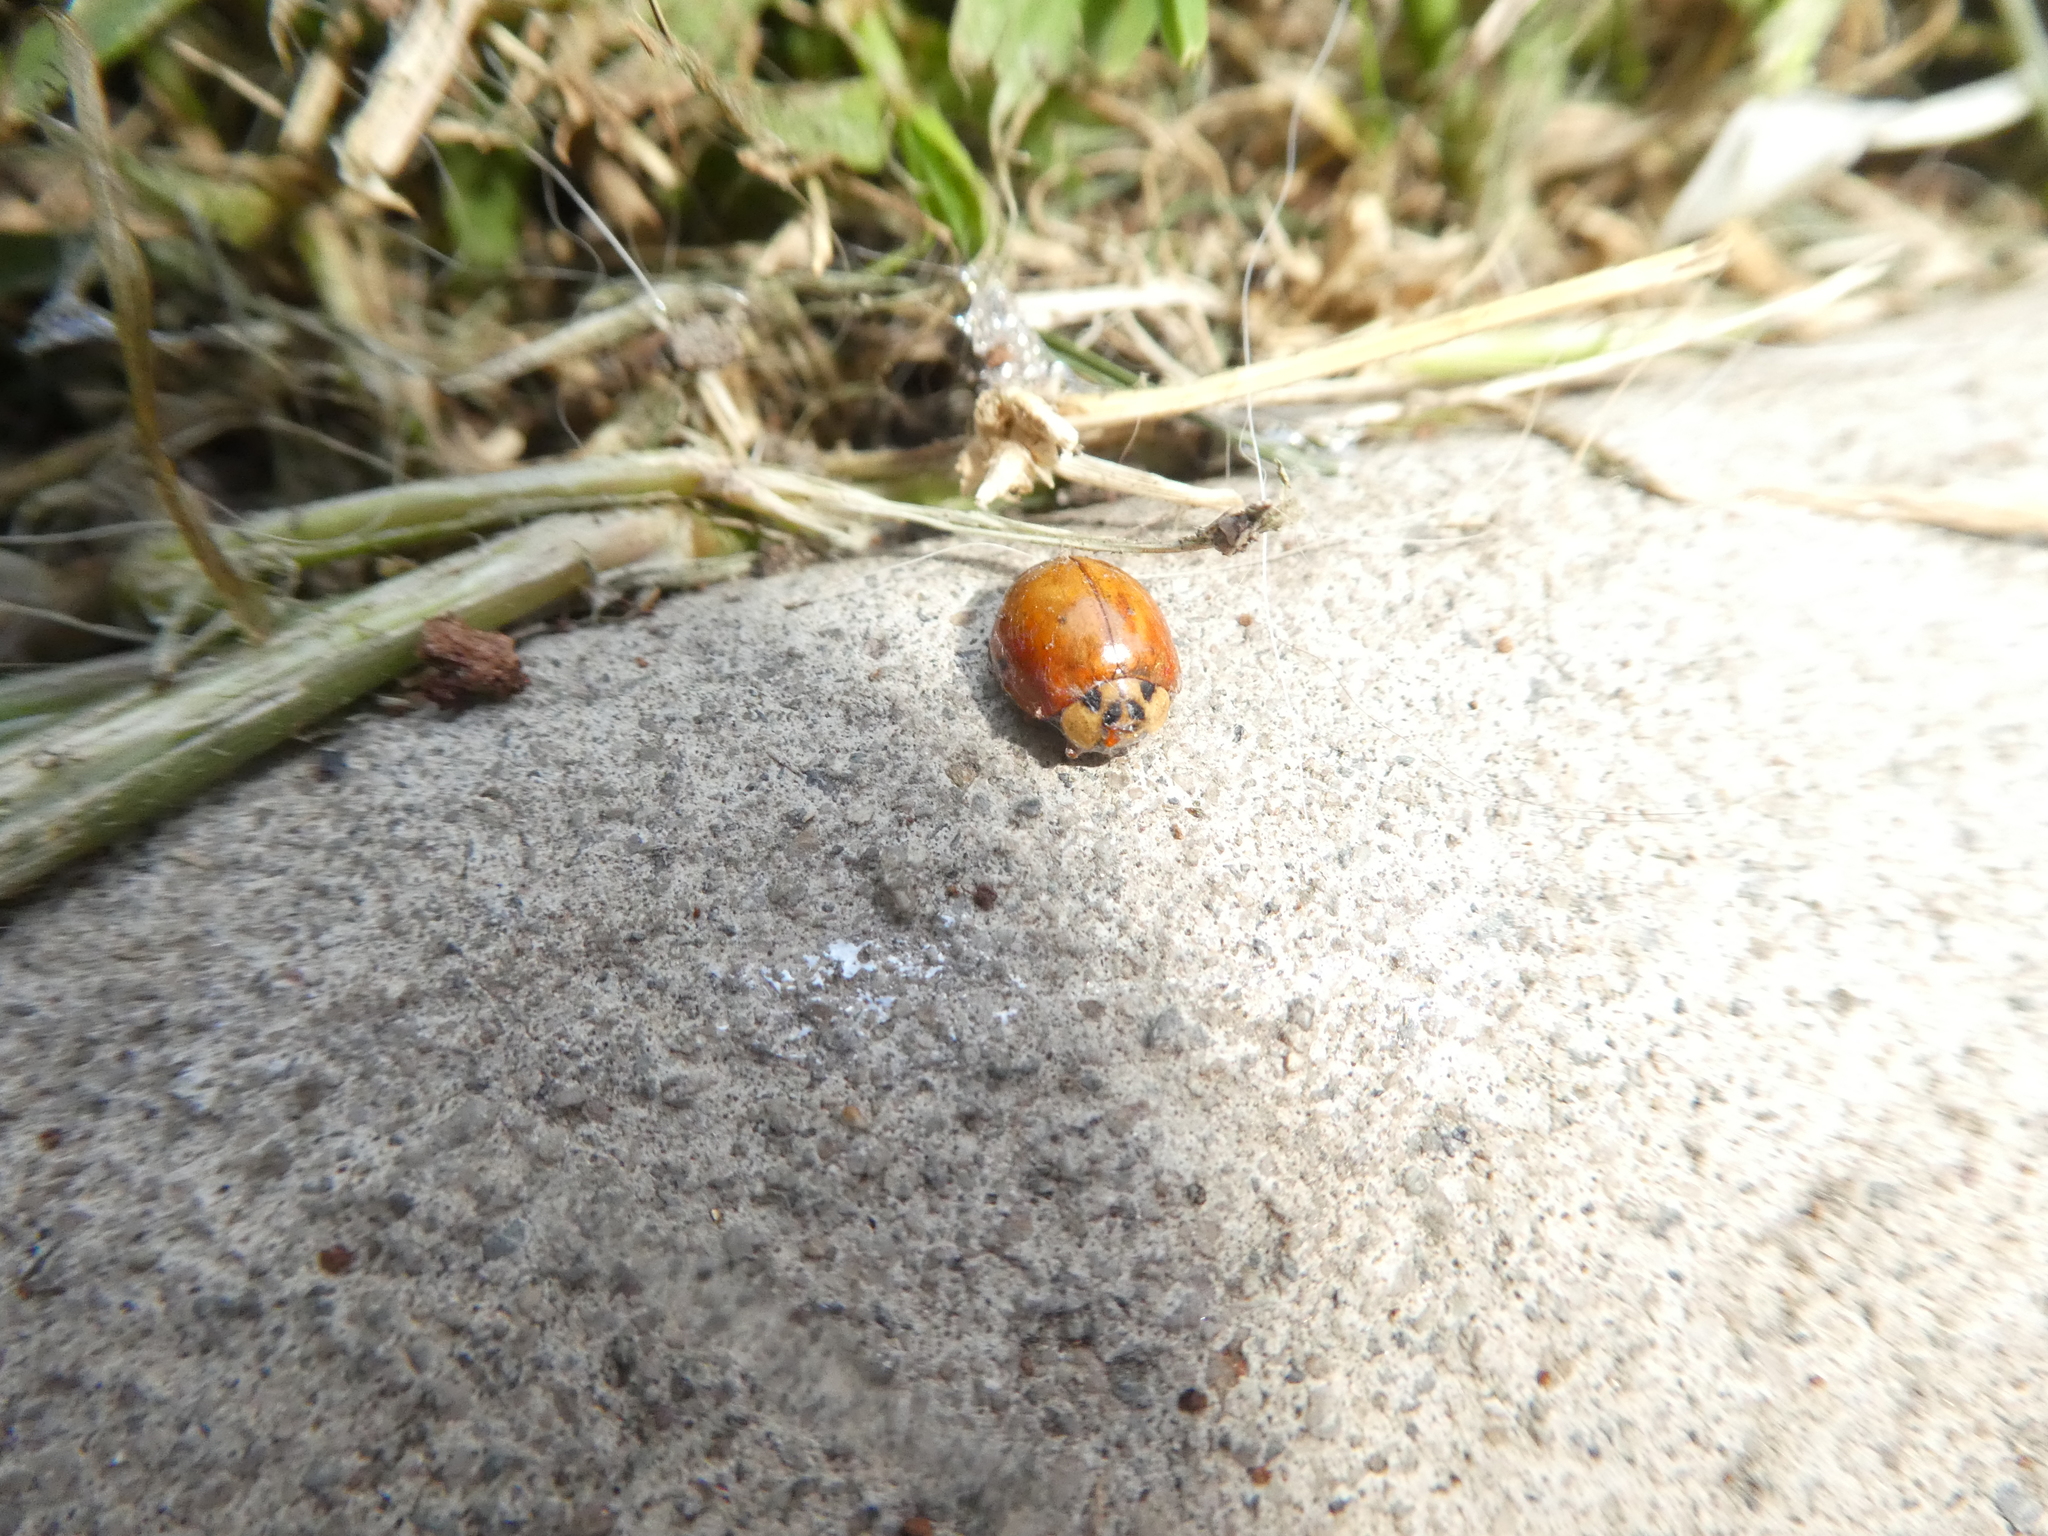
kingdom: Animalia
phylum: Arthropoda
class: Insecta
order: Coleoptera
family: Coccinellidae
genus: Harmonia
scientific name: Harmonia axyridis
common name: Harlequin ladybird
